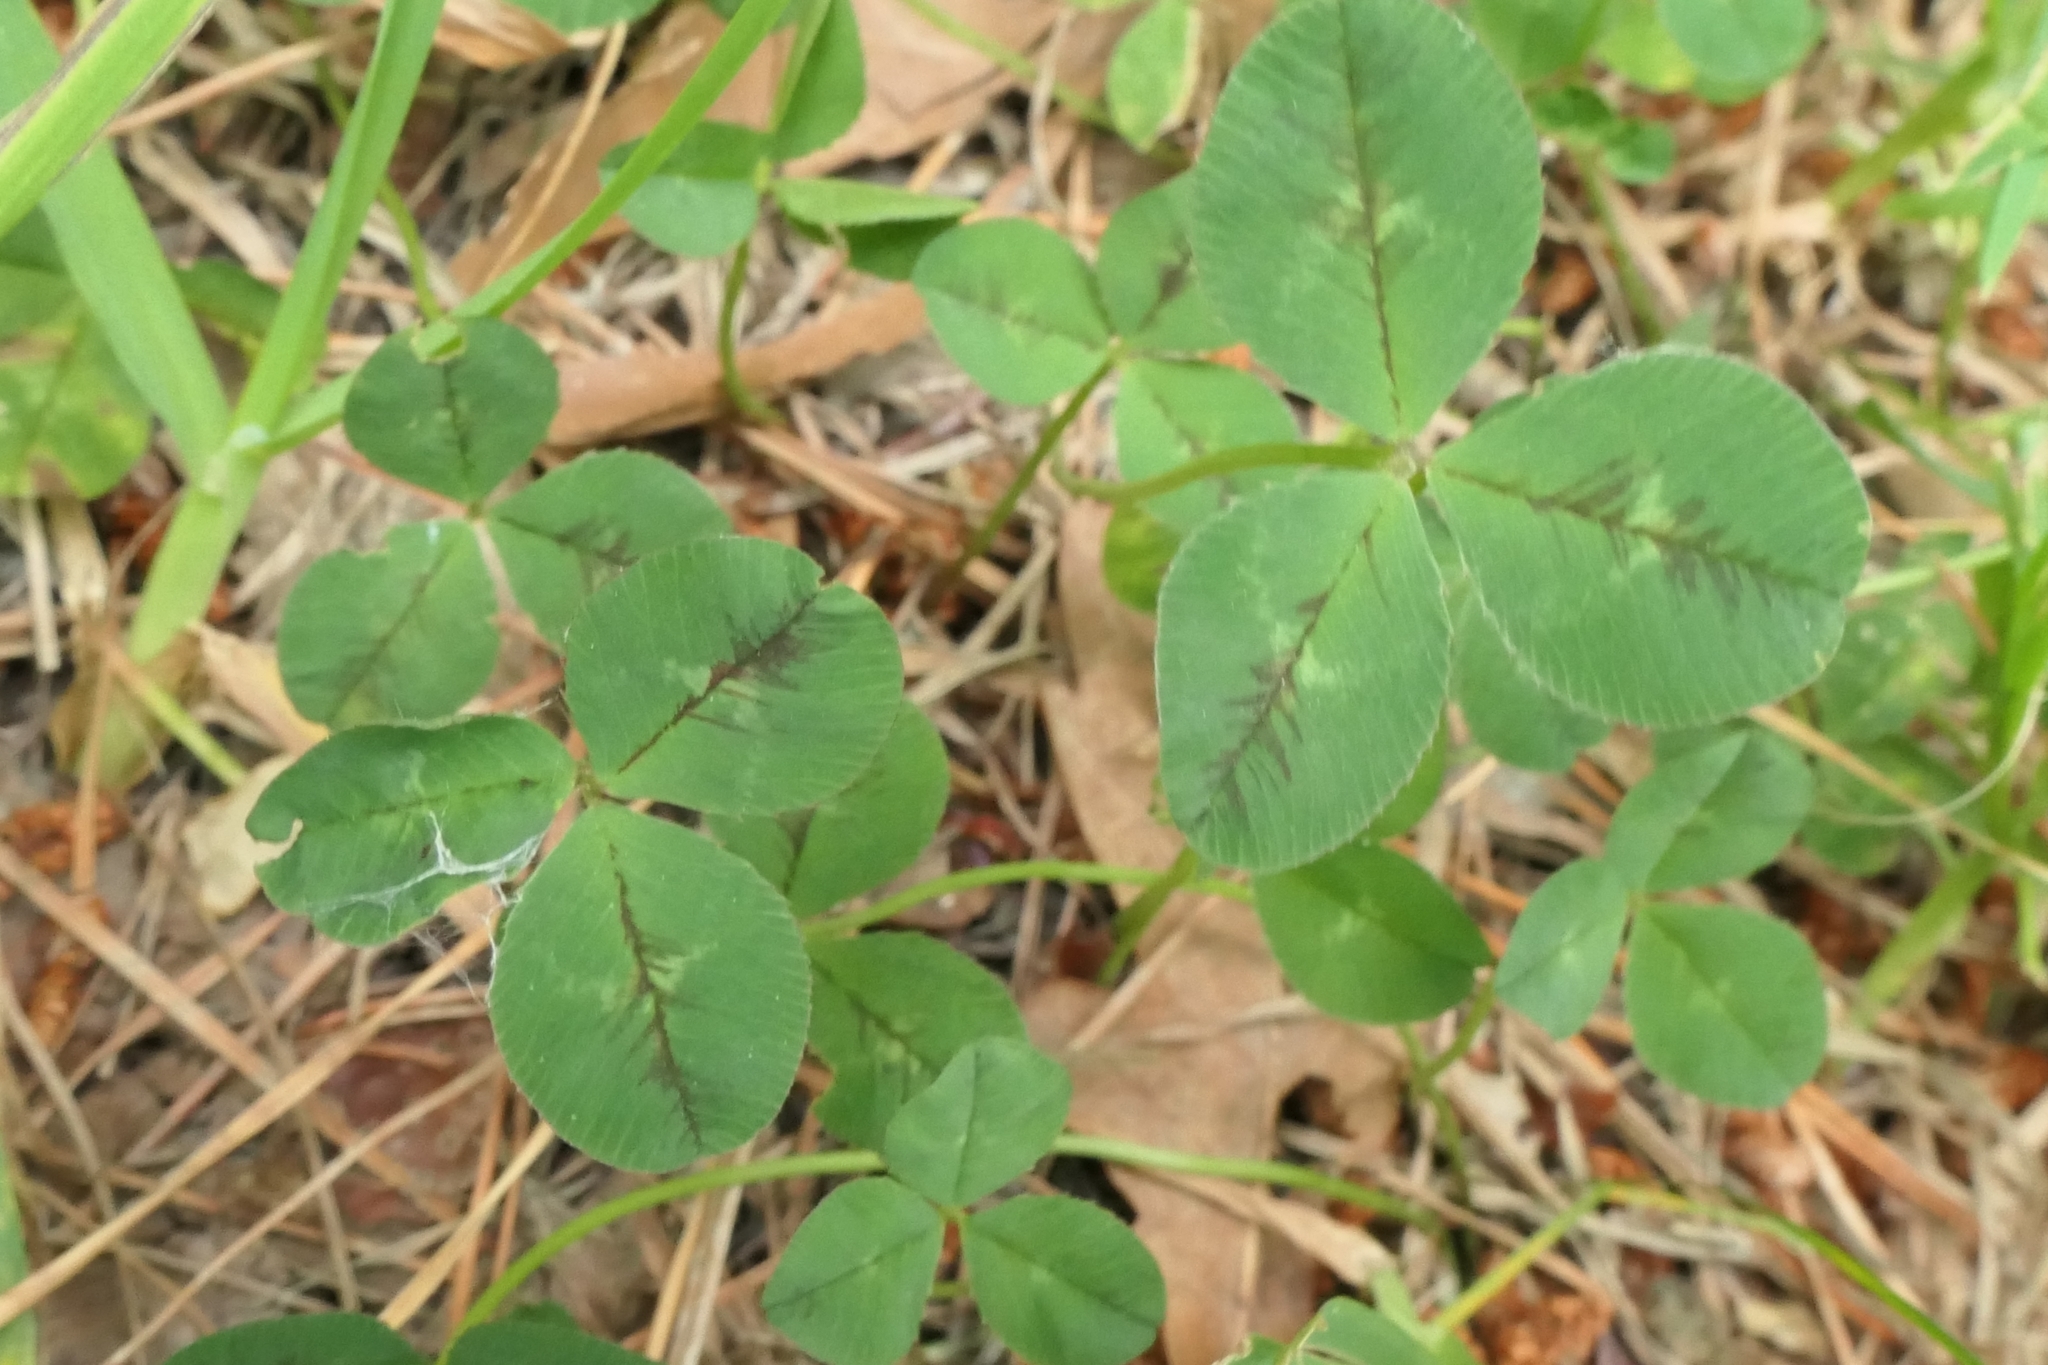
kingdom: Plantae
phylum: Tracheophyta
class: Magnoliopsida
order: Fabales
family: Fabaceae
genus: Trifolium
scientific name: Trifolium repens
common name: White clover
